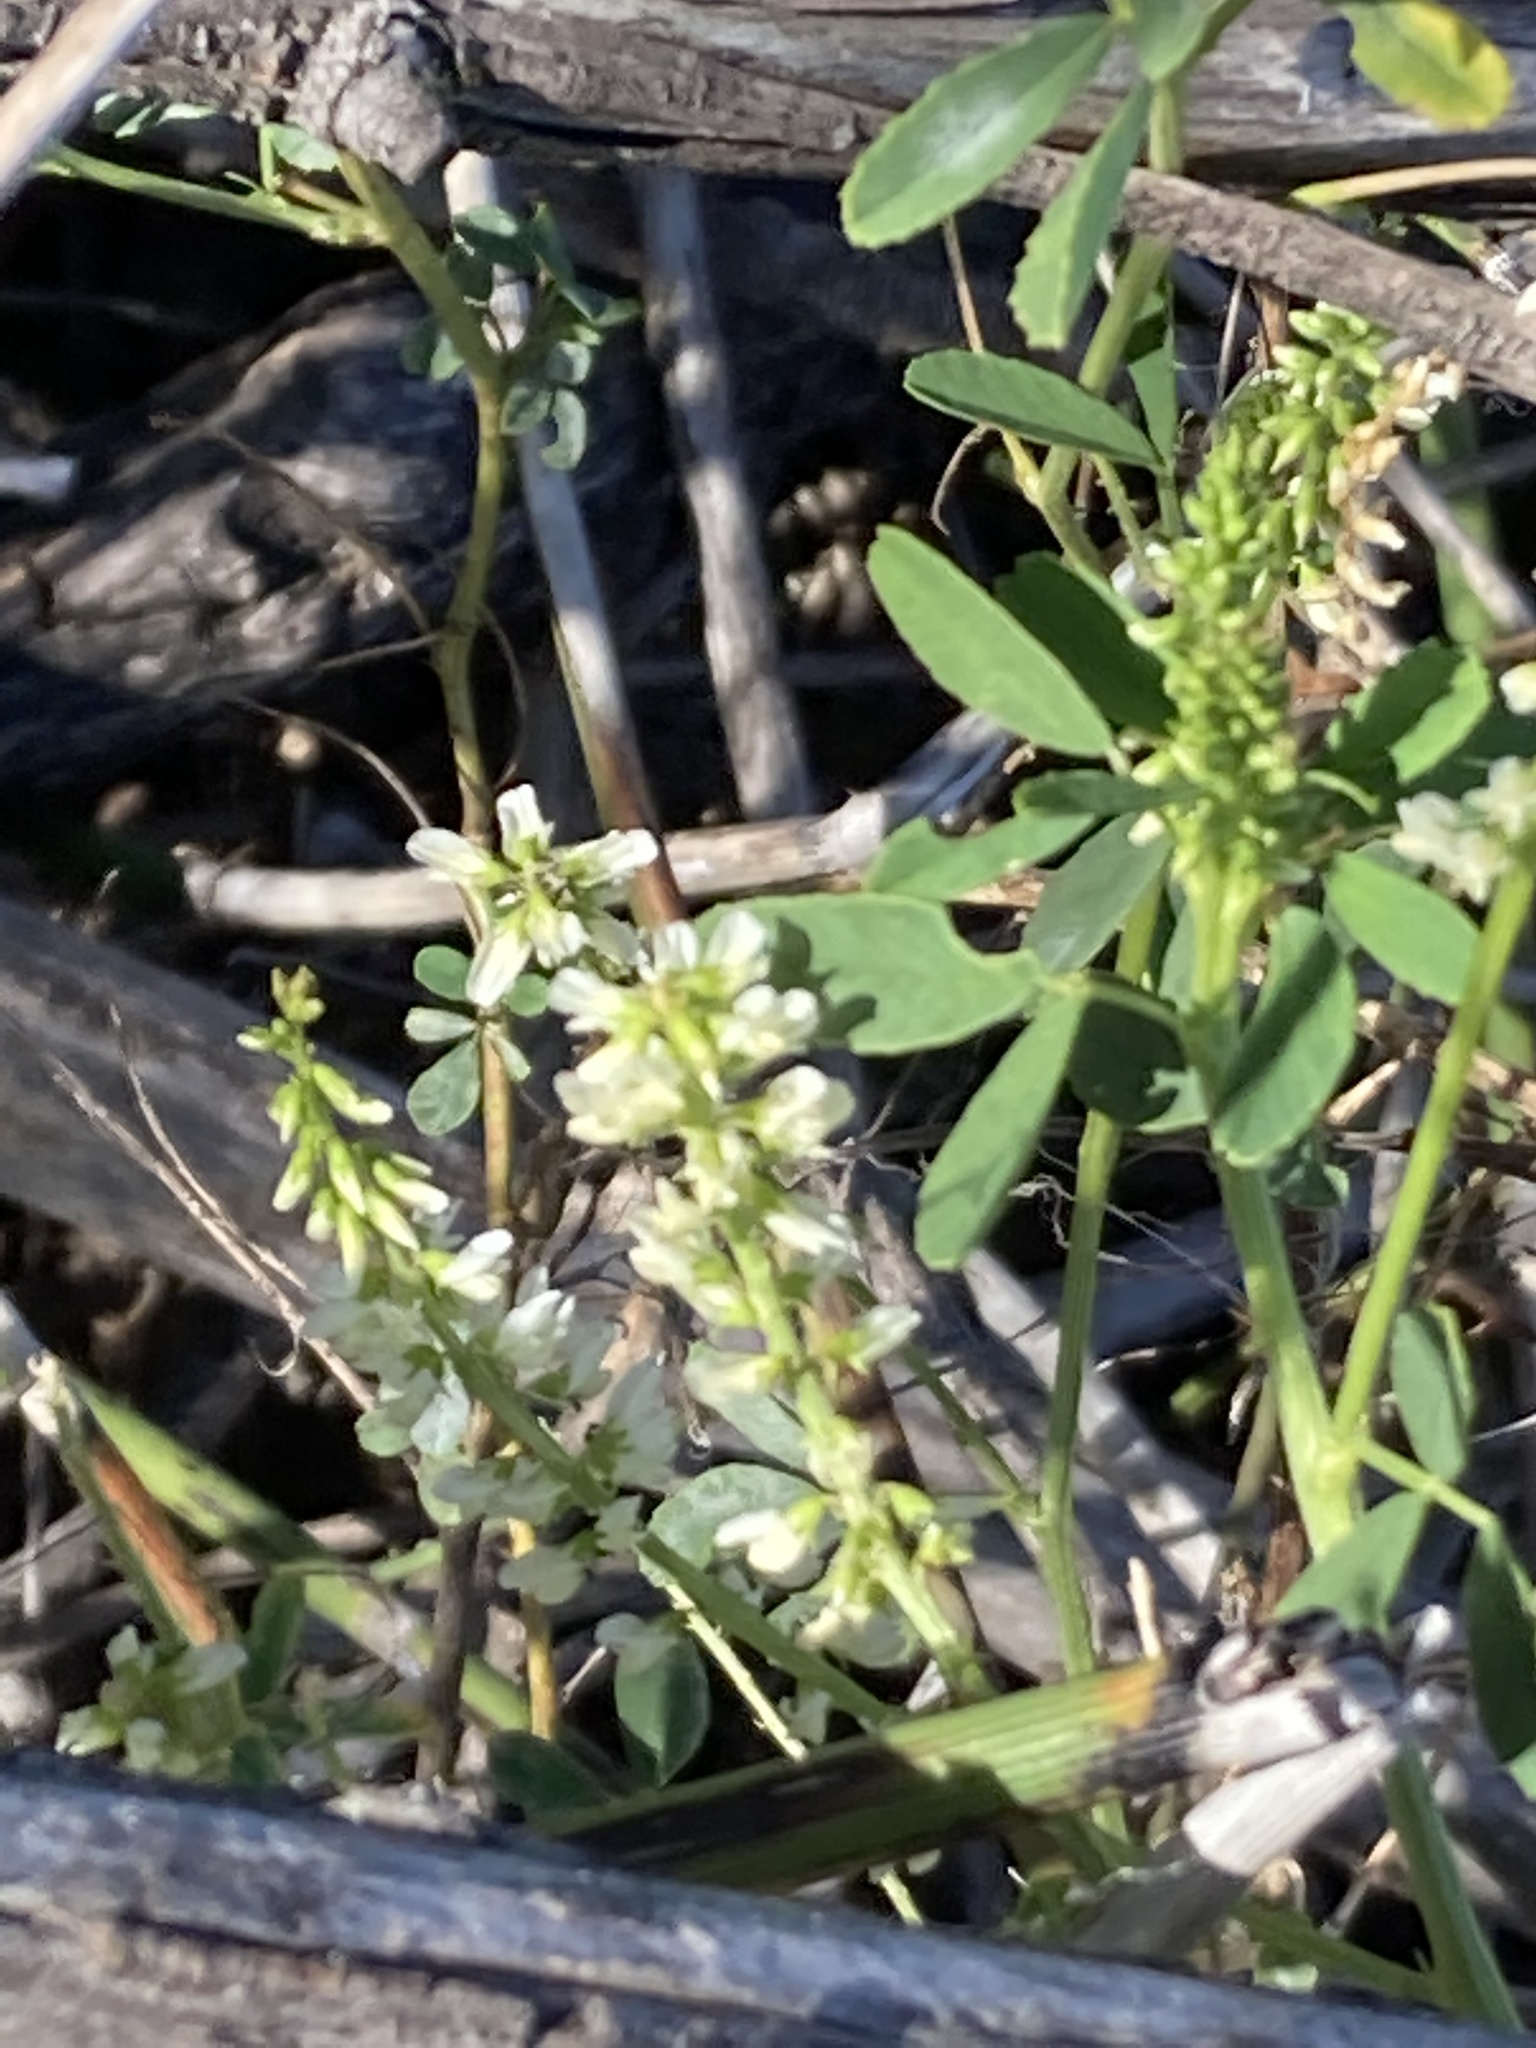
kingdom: Plantae
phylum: Tracheophyta
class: Magnoliopsida
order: Fabales
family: Fabaceae
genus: Melilotus
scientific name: Melilotus albus
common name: White melilot
